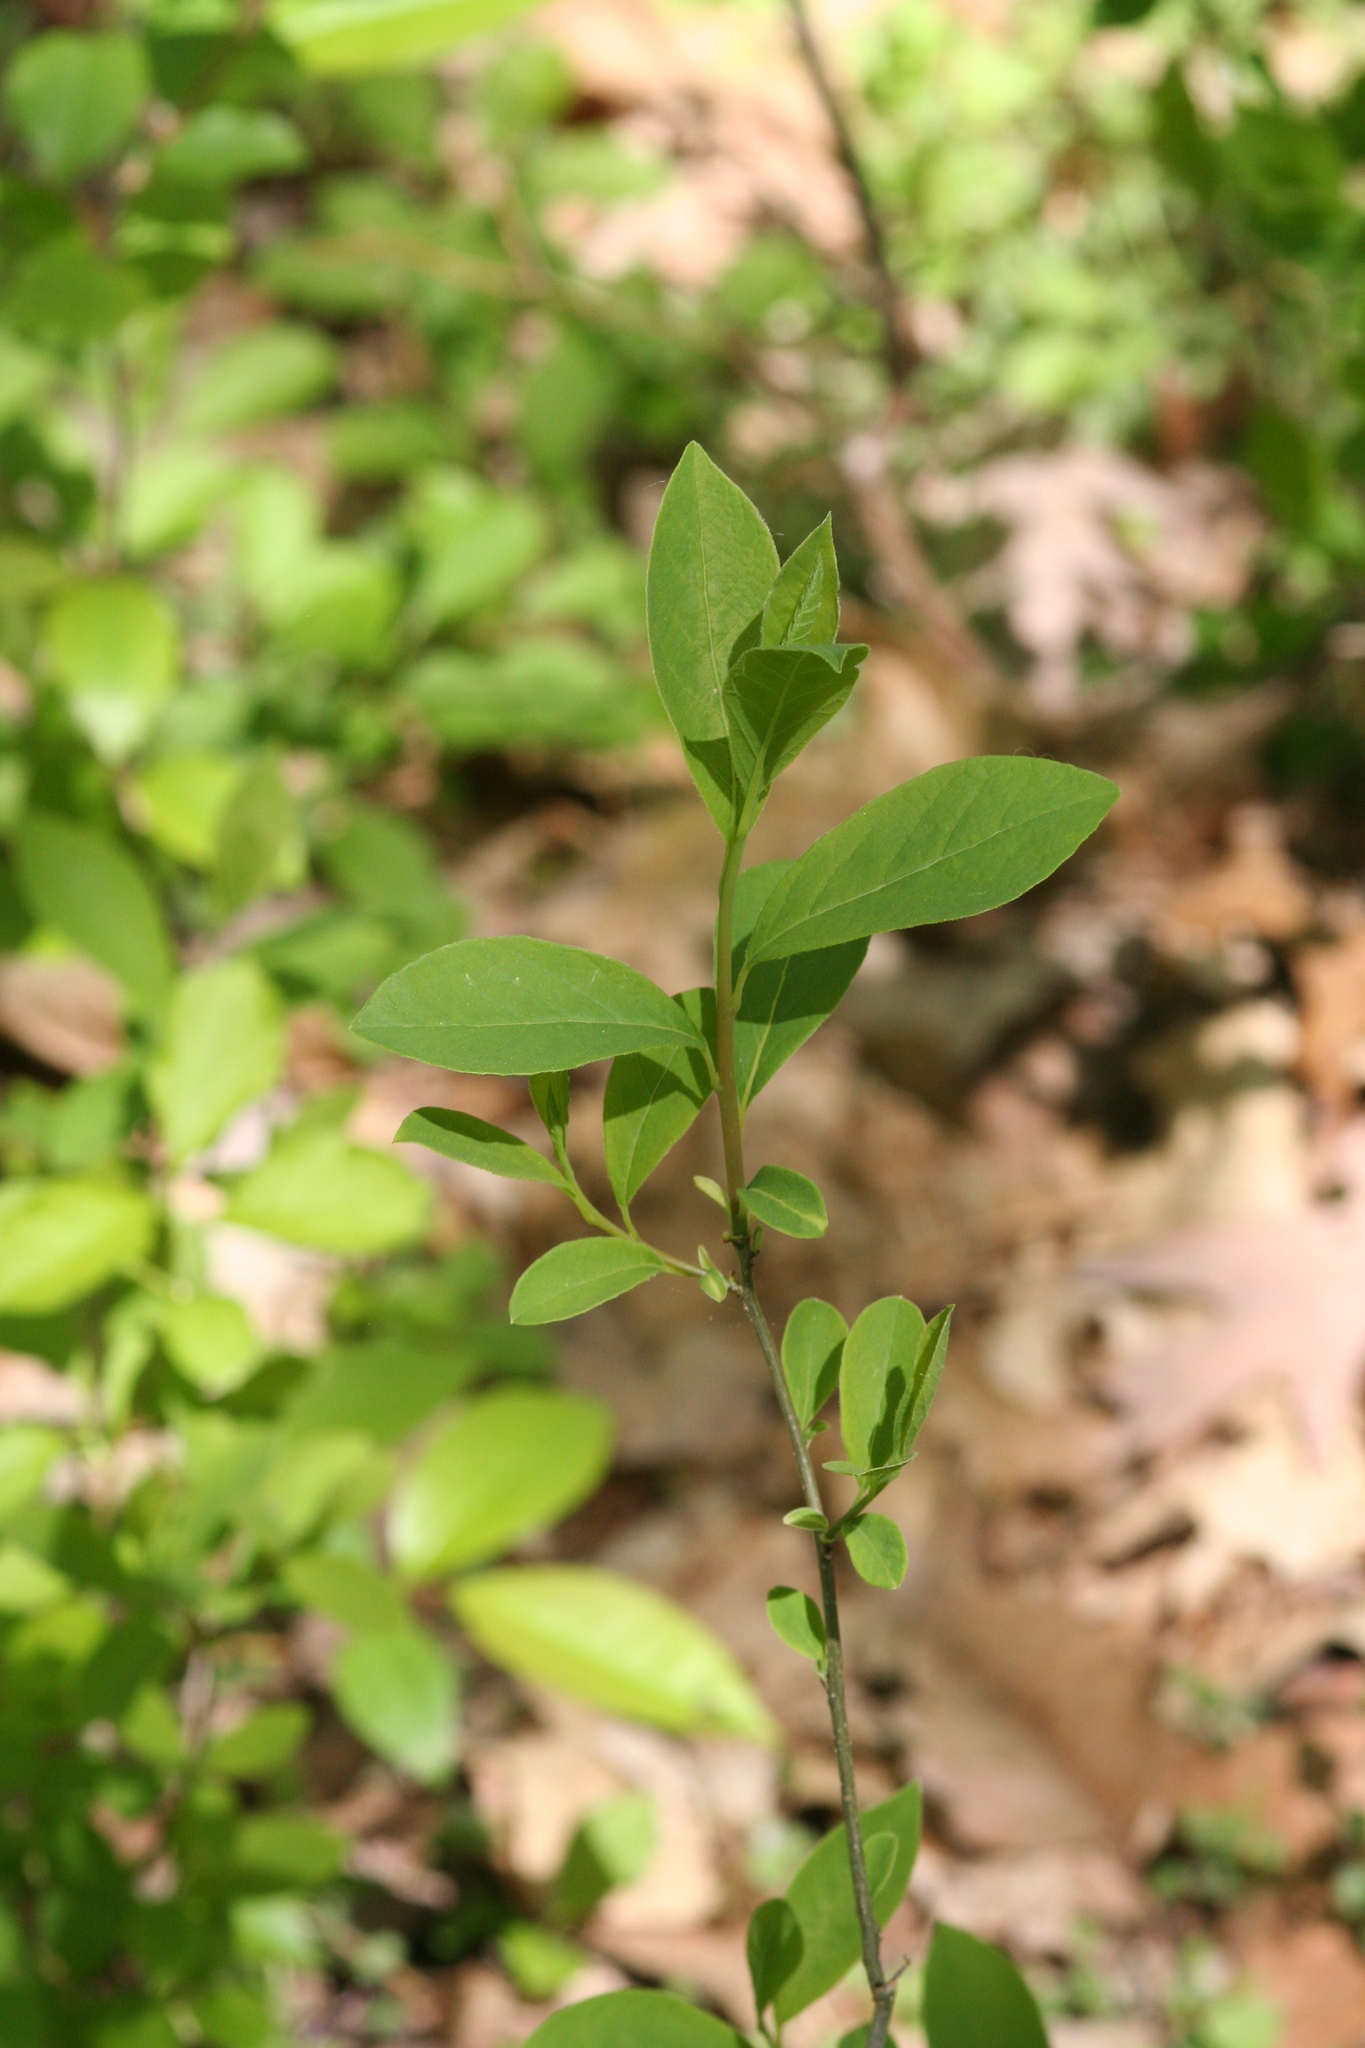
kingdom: Plantae
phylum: Tracheophyta
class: Magnoliopsida
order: Laurales
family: Lauraceae
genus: Lindera
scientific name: Lindera benzoin
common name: Spicebush
